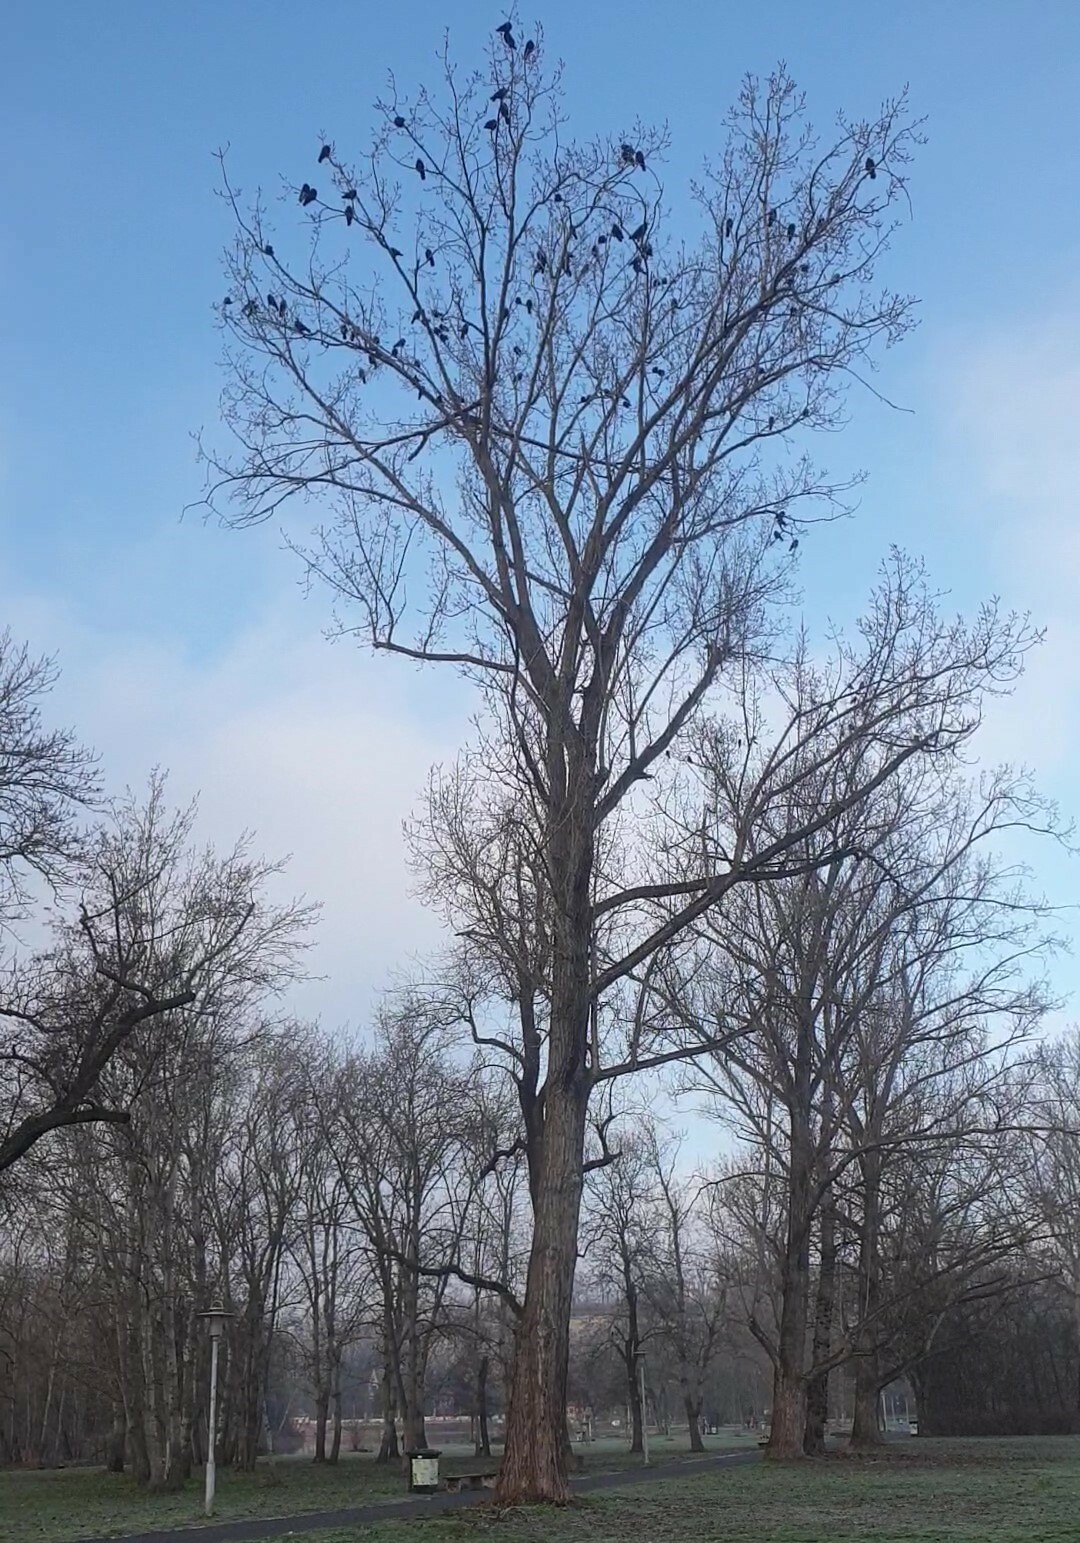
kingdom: Animalia
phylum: Chordata
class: Aves
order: Passeriformes
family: Corvidae
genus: Corvus
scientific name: Corvus frugilegus
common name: Rook
